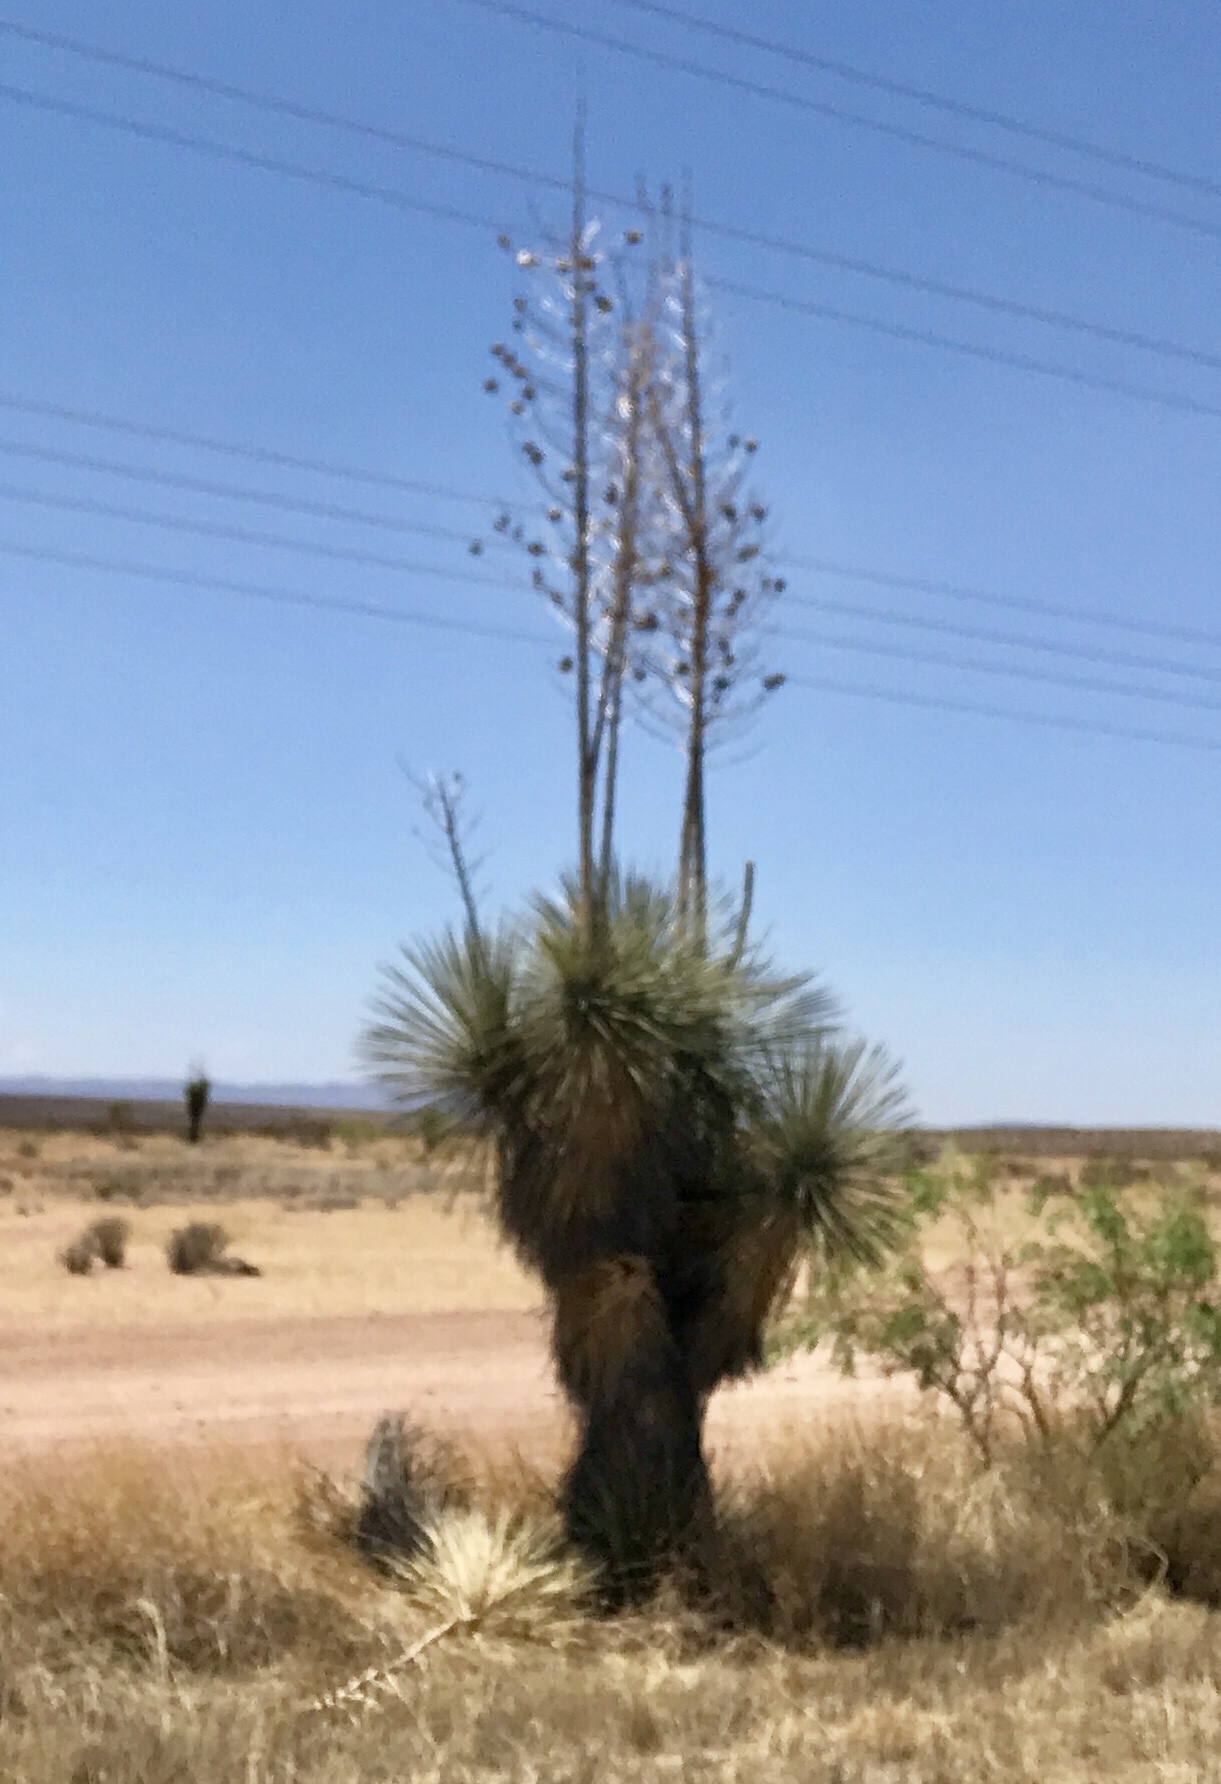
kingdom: Plantae
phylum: Tracheophyta
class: Liliopsida
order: Asparagales
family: Asparagaceae
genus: Yucca
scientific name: Yucca elata
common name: Palmella
